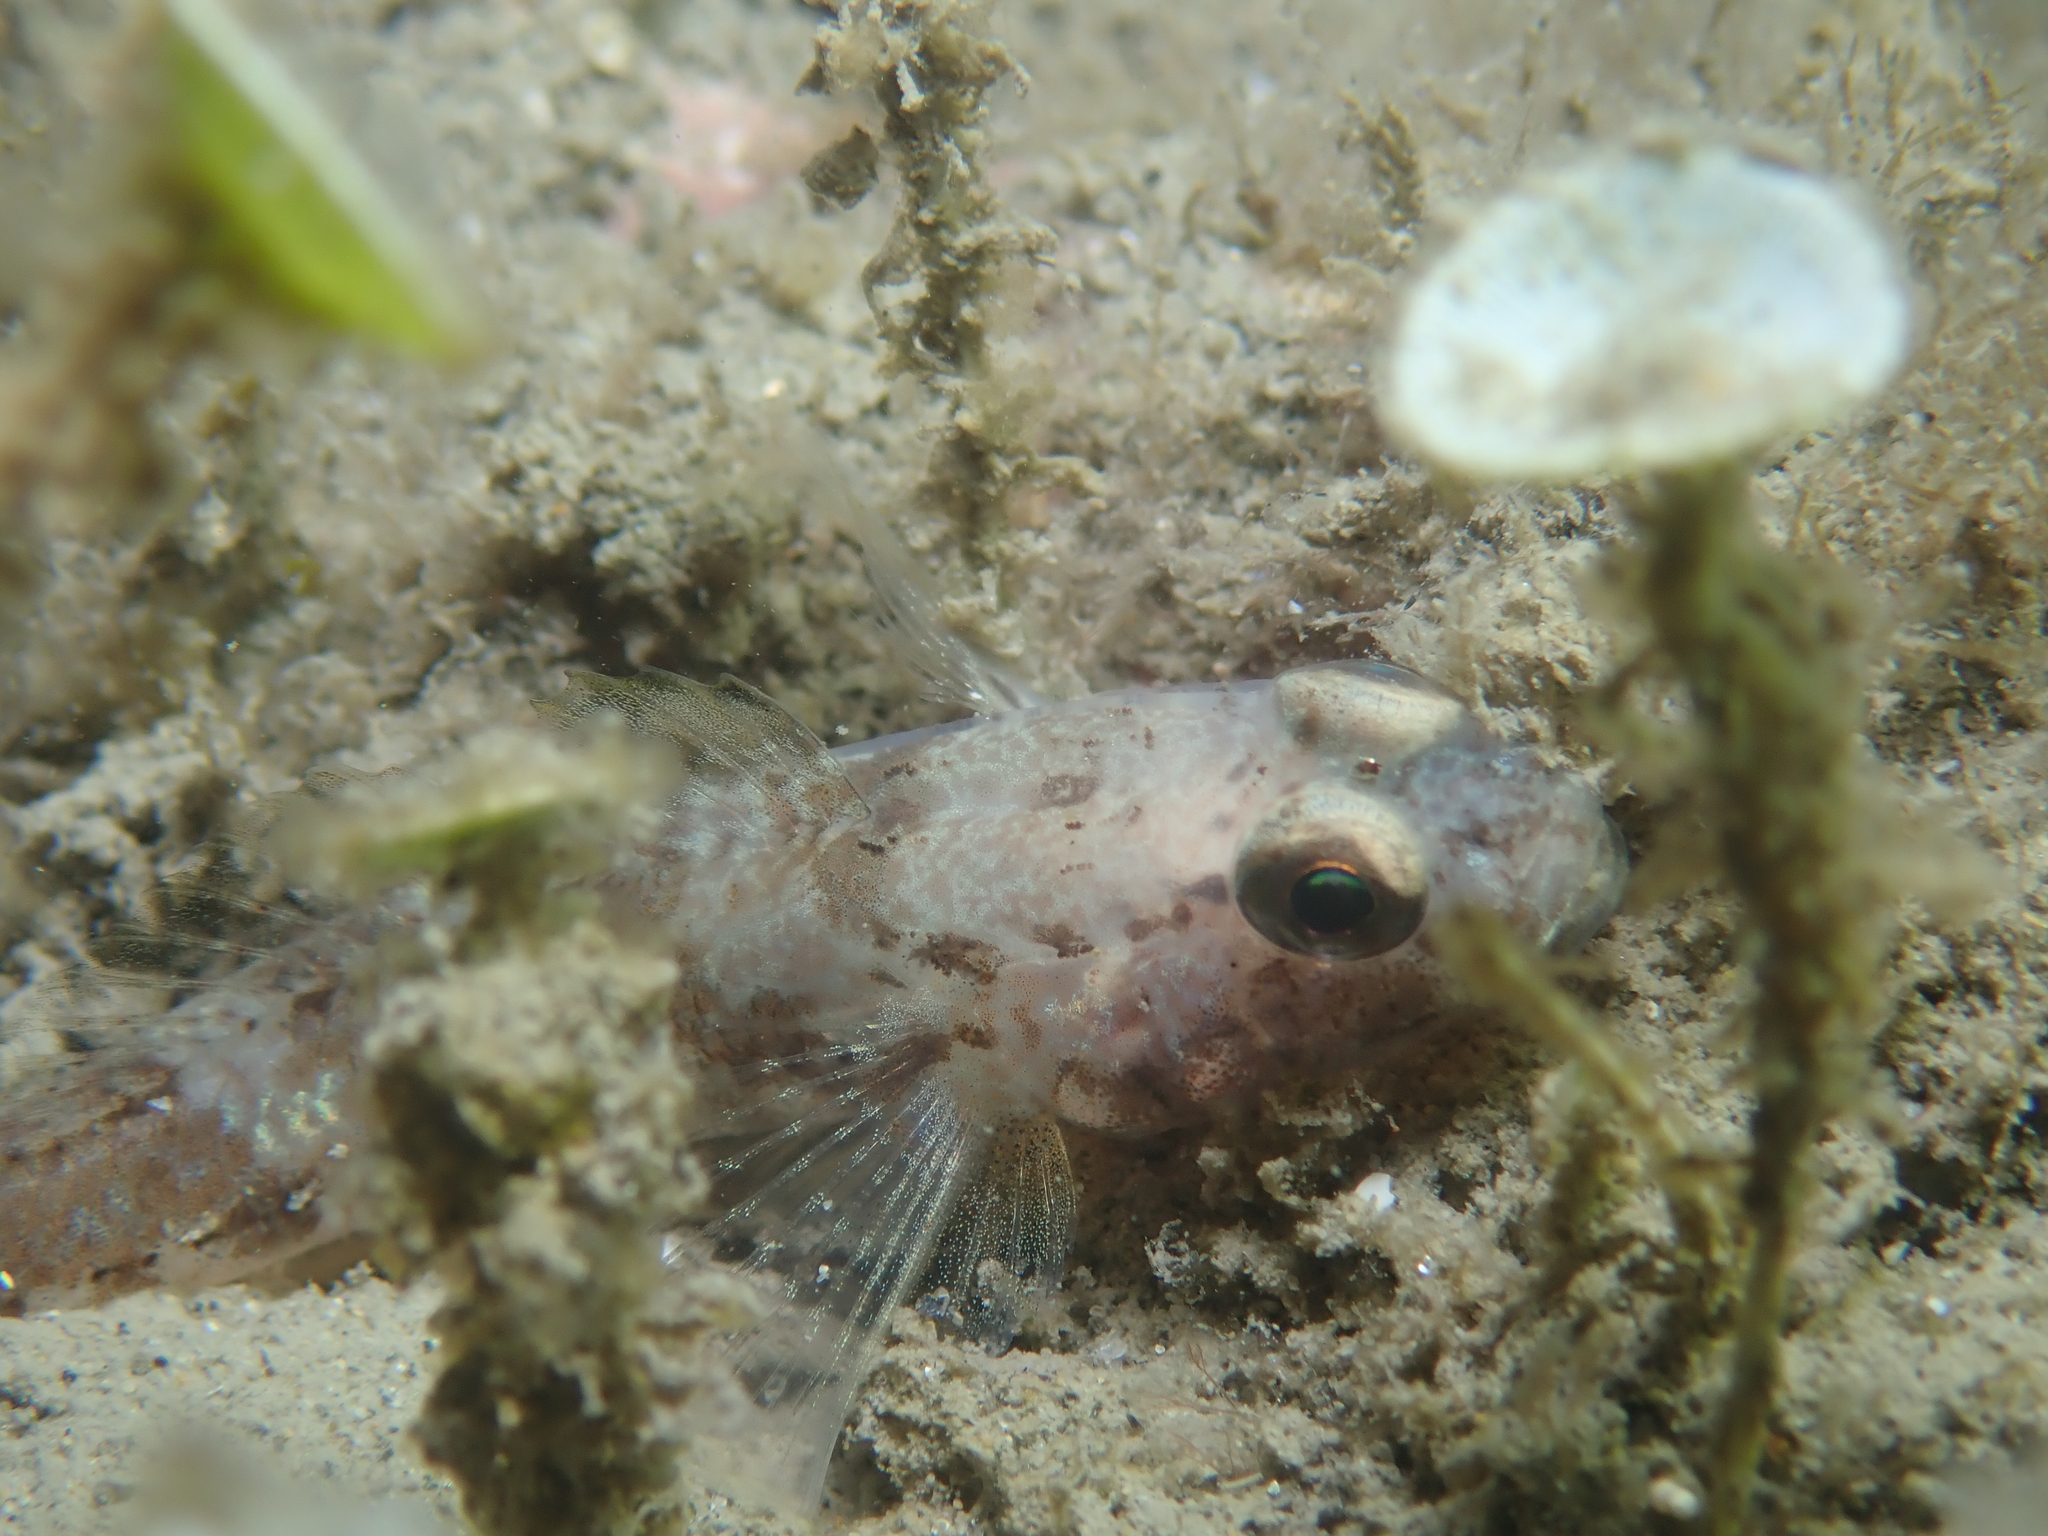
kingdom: Animalia
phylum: Chordata
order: Perciformes
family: Gobiidae
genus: Gobius
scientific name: Gobius niger
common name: Black goby
